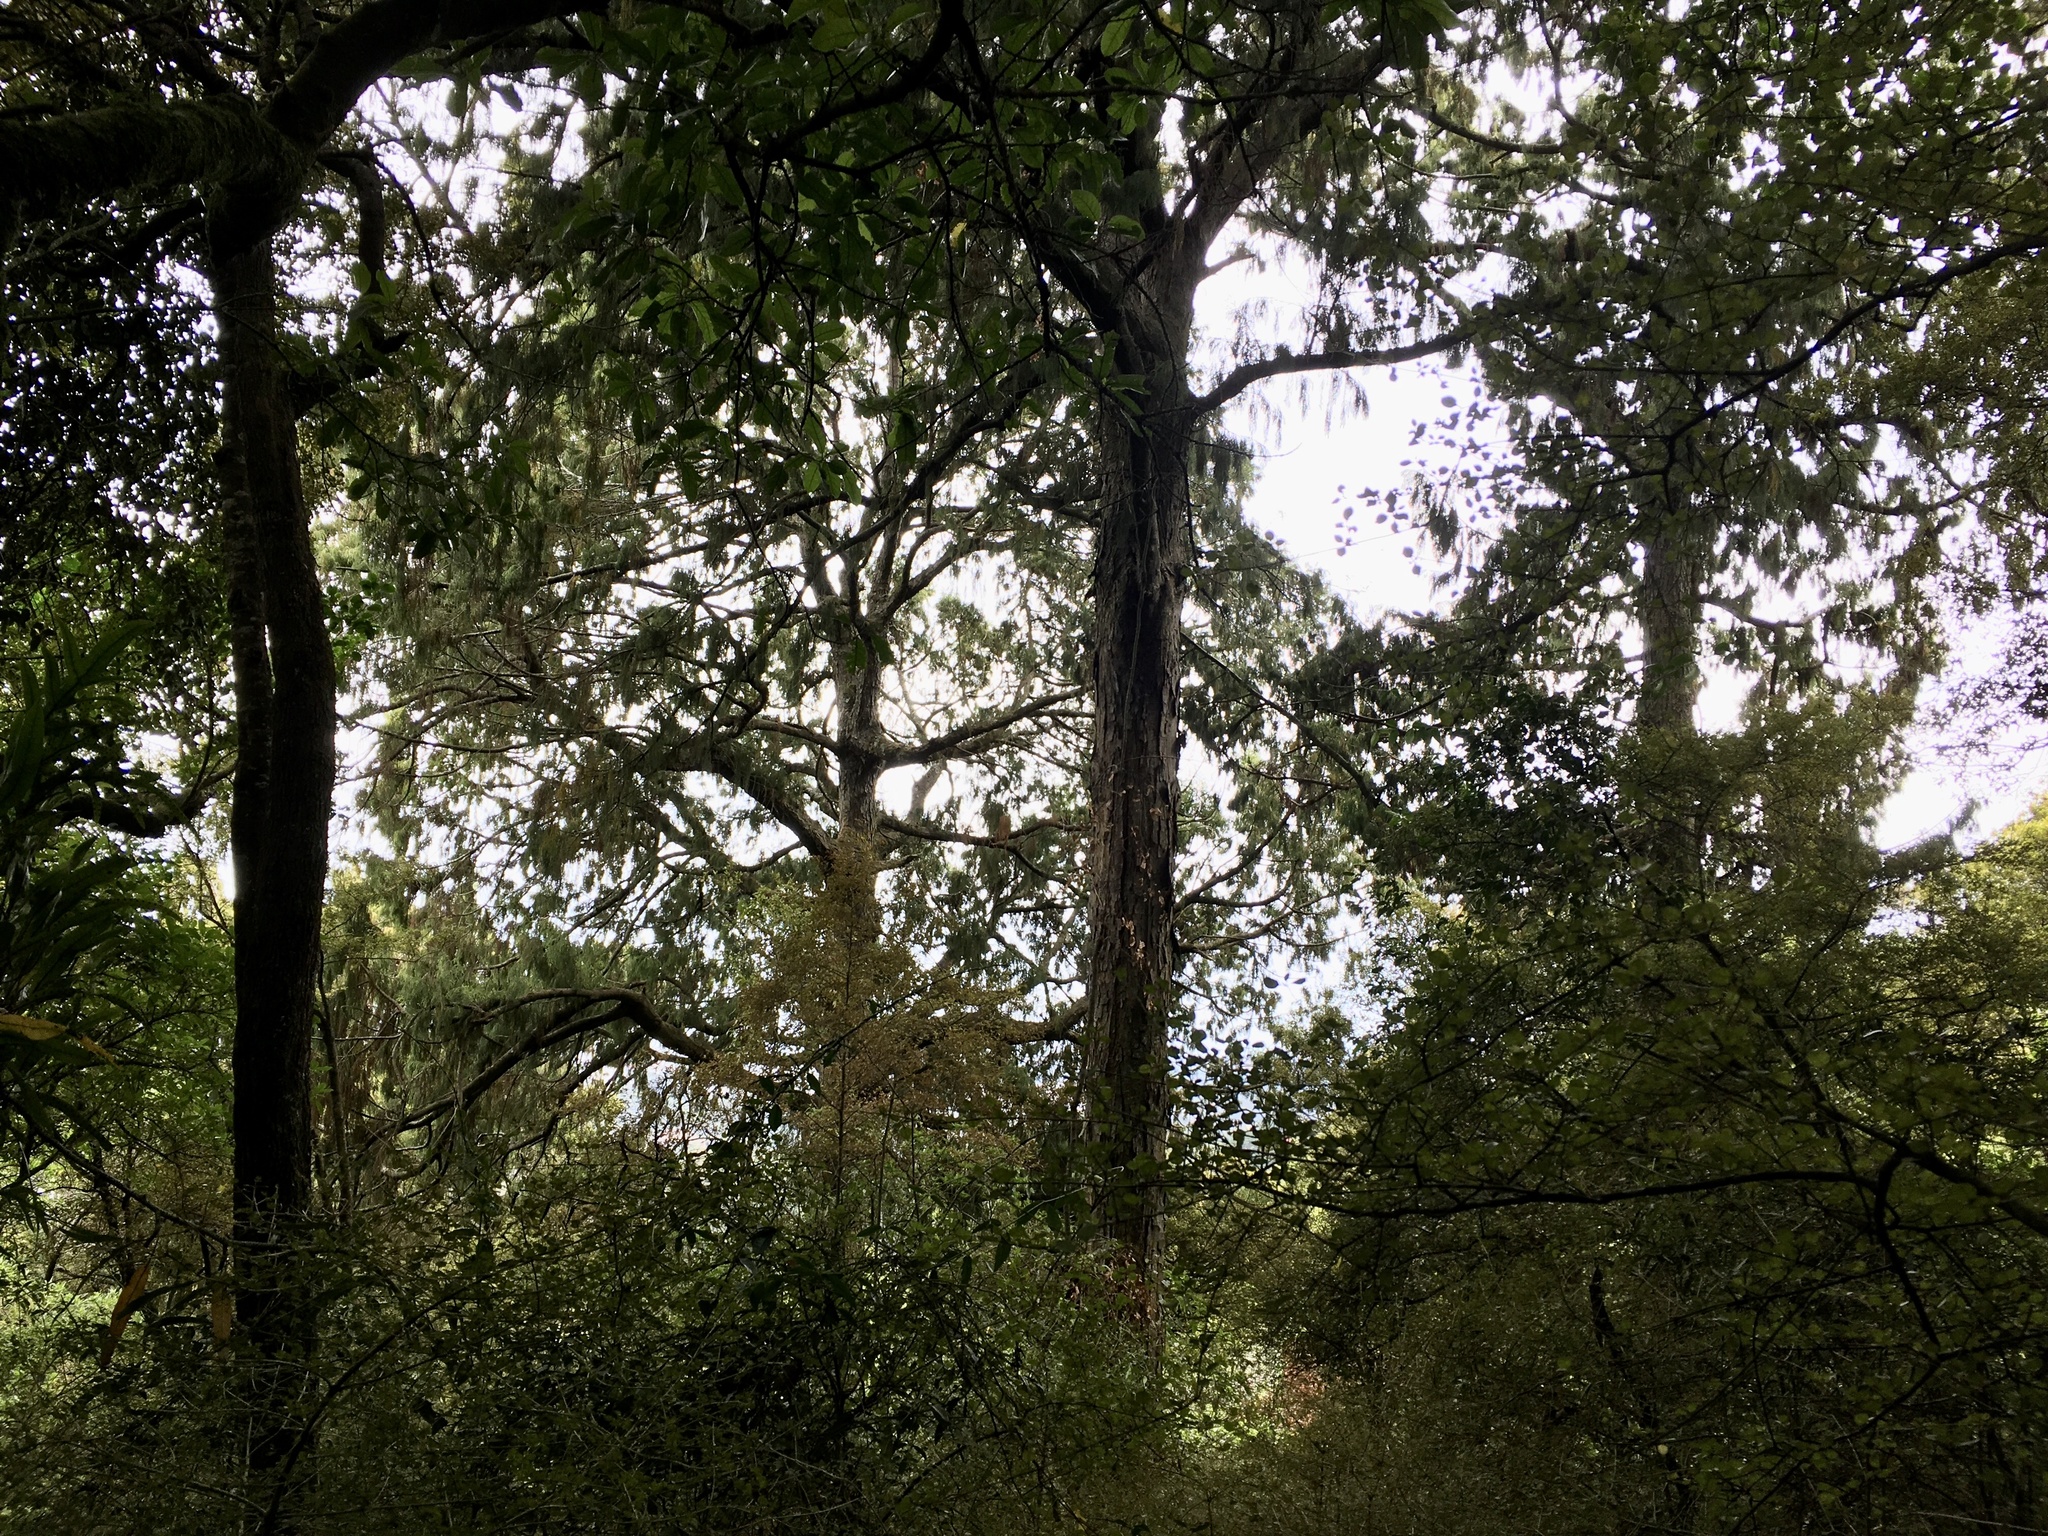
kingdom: Plantae
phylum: Tracheophyta
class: Pinopsida
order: Pinales
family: Podocarpaceae
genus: Dacrydium
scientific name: Dacrydium cupressinum
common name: Red pine
